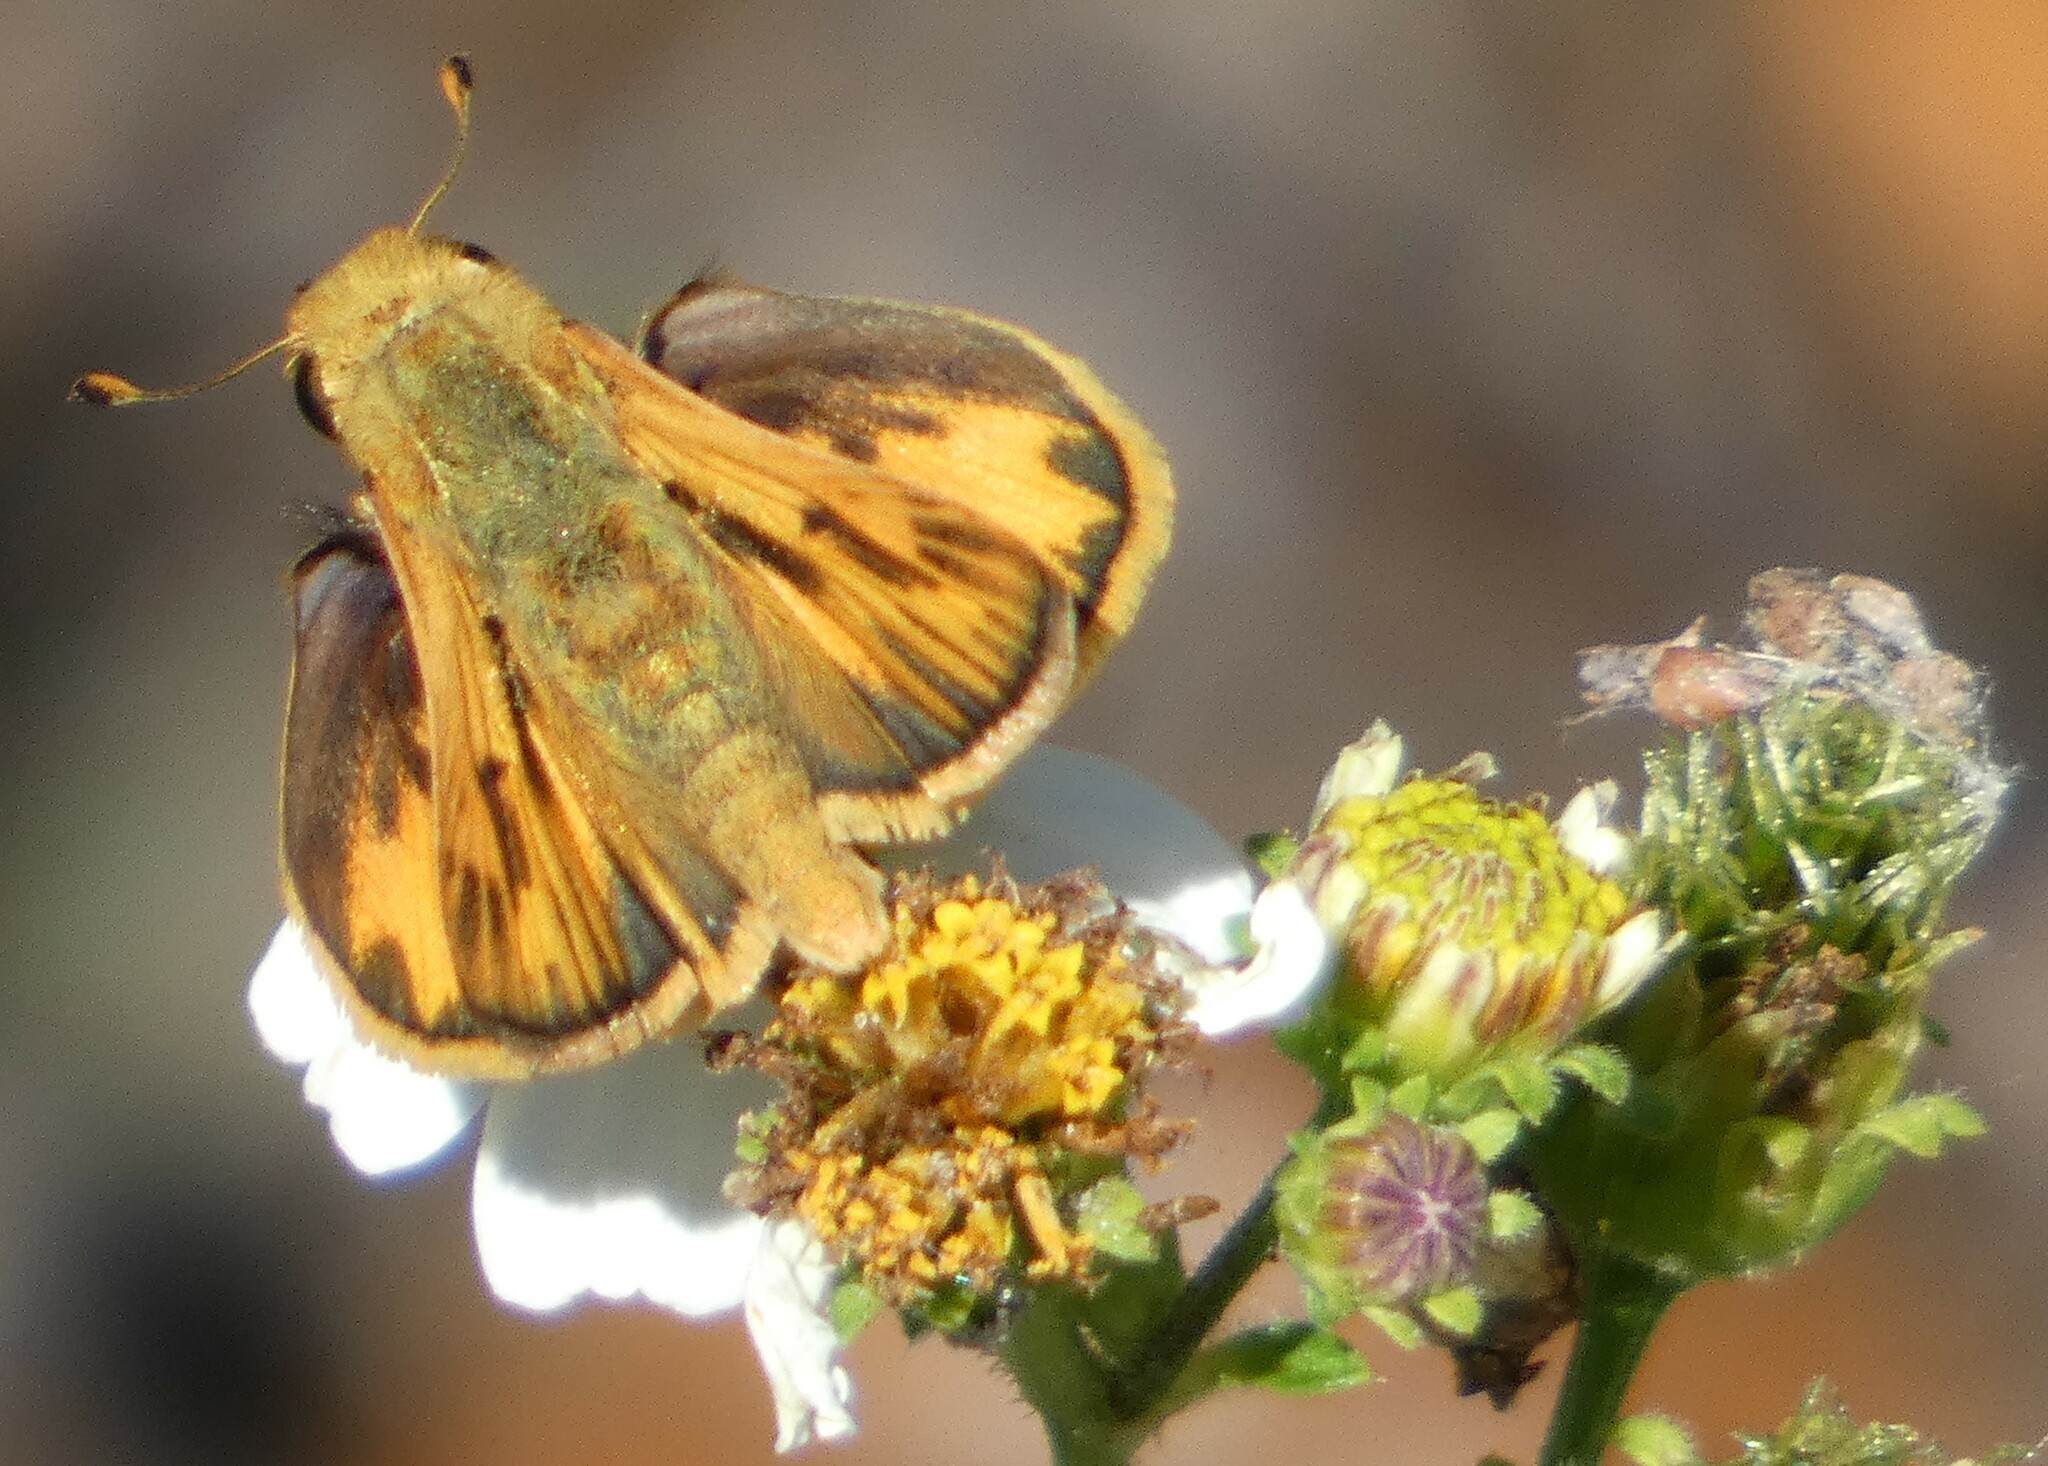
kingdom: Animalia
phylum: Arthropoda
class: Insecta
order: Lepidoptera
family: Hesperiidae
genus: Hylephila
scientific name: Hylephila phyleus
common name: Fiery skipper
